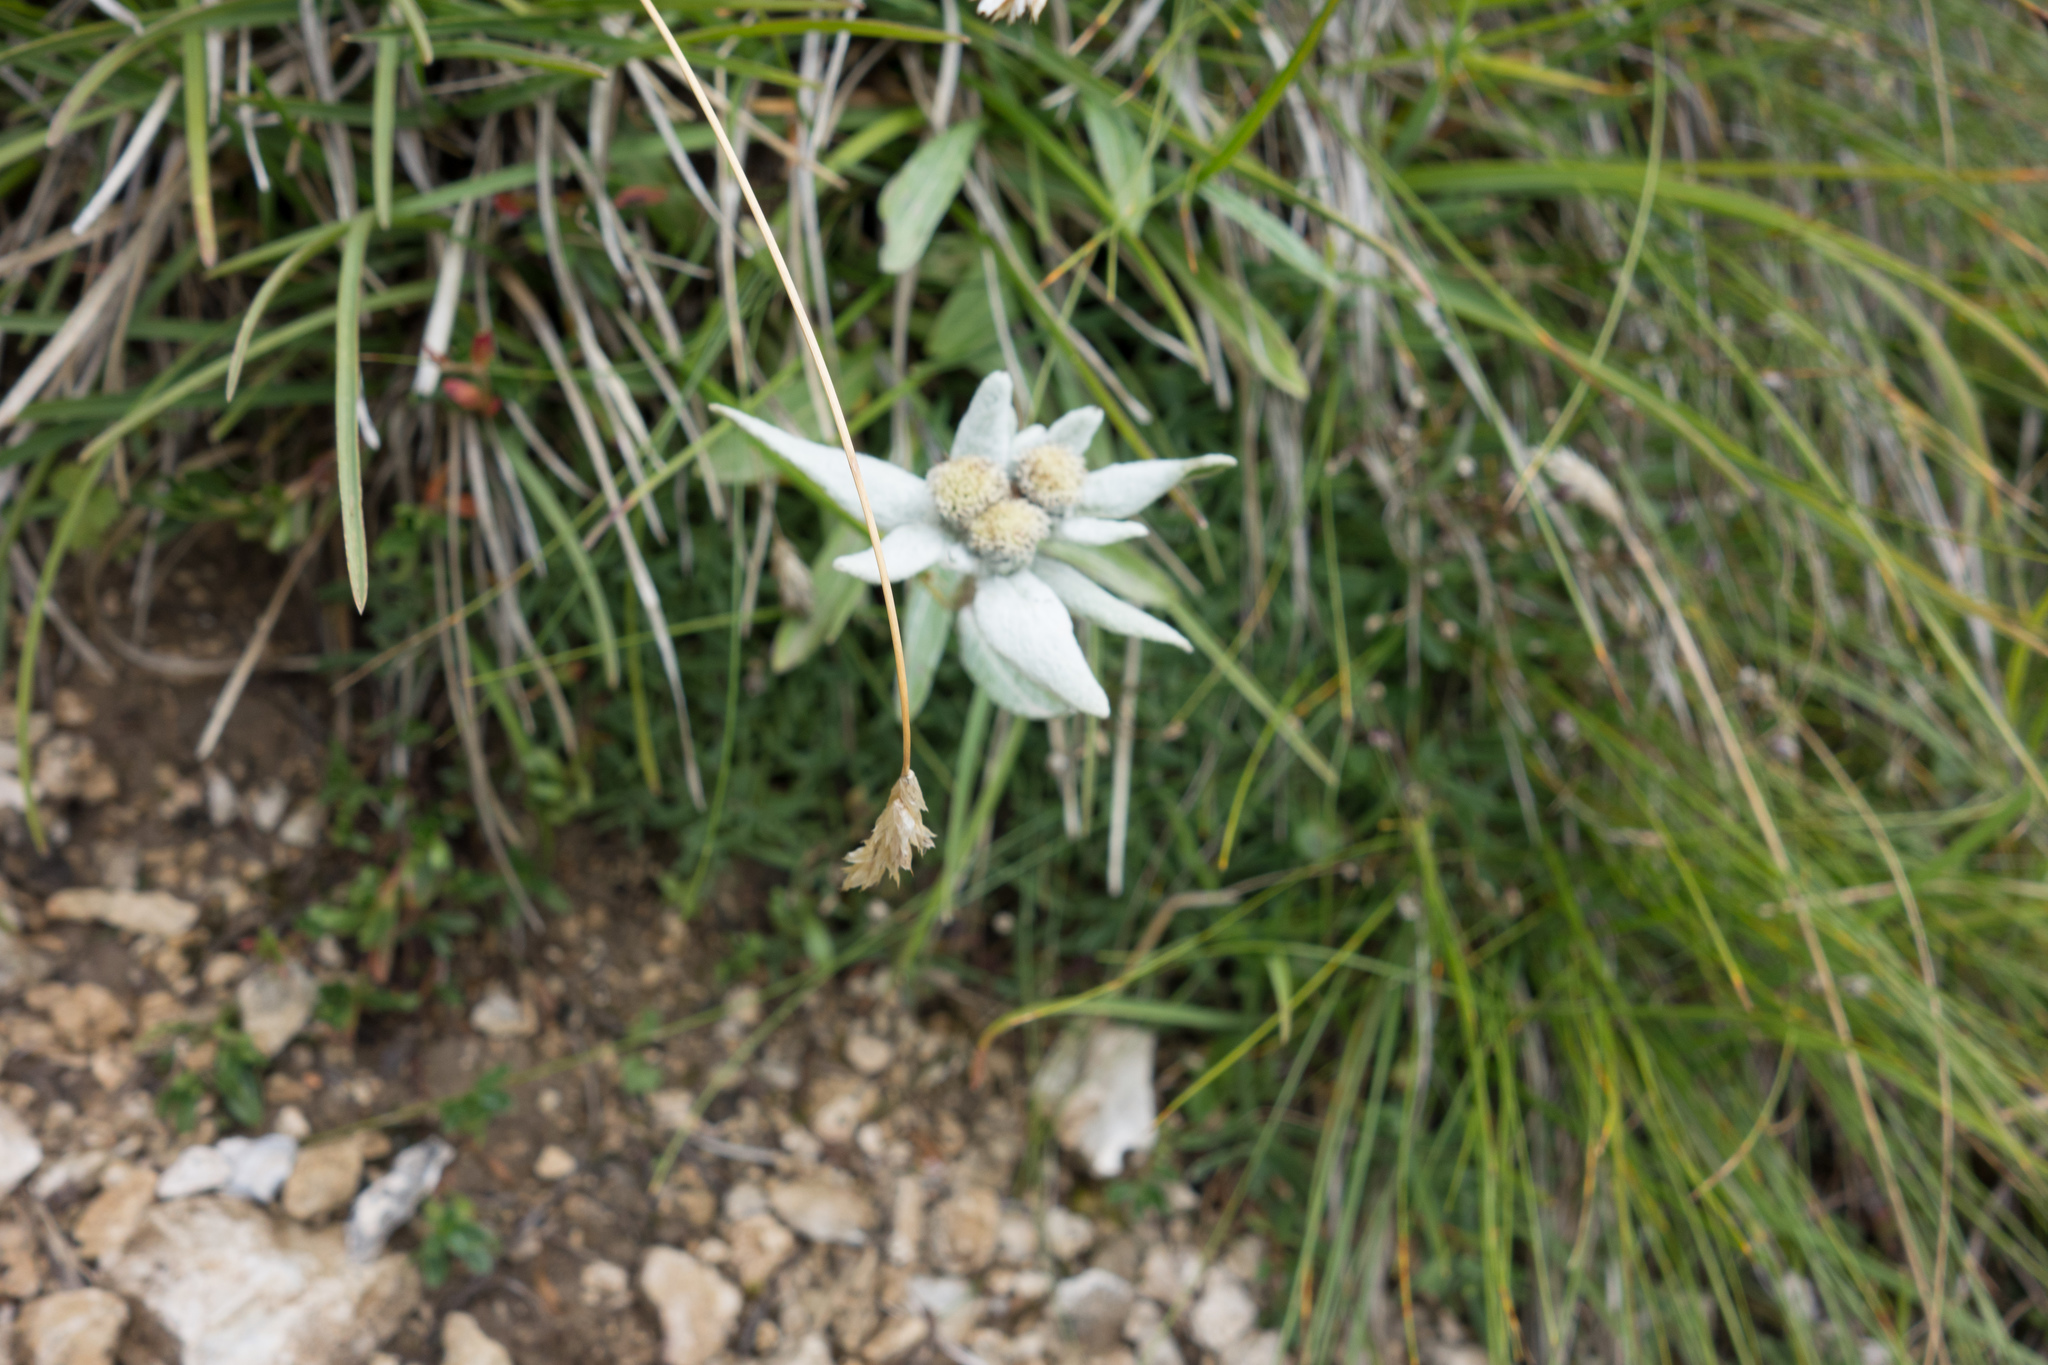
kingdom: Plantae
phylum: Tracheophyta
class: Magnoliopsida
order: Asterales
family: Asteraceae
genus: Leontopodium
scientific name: Leontopodium nivale
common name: Edelweiss
